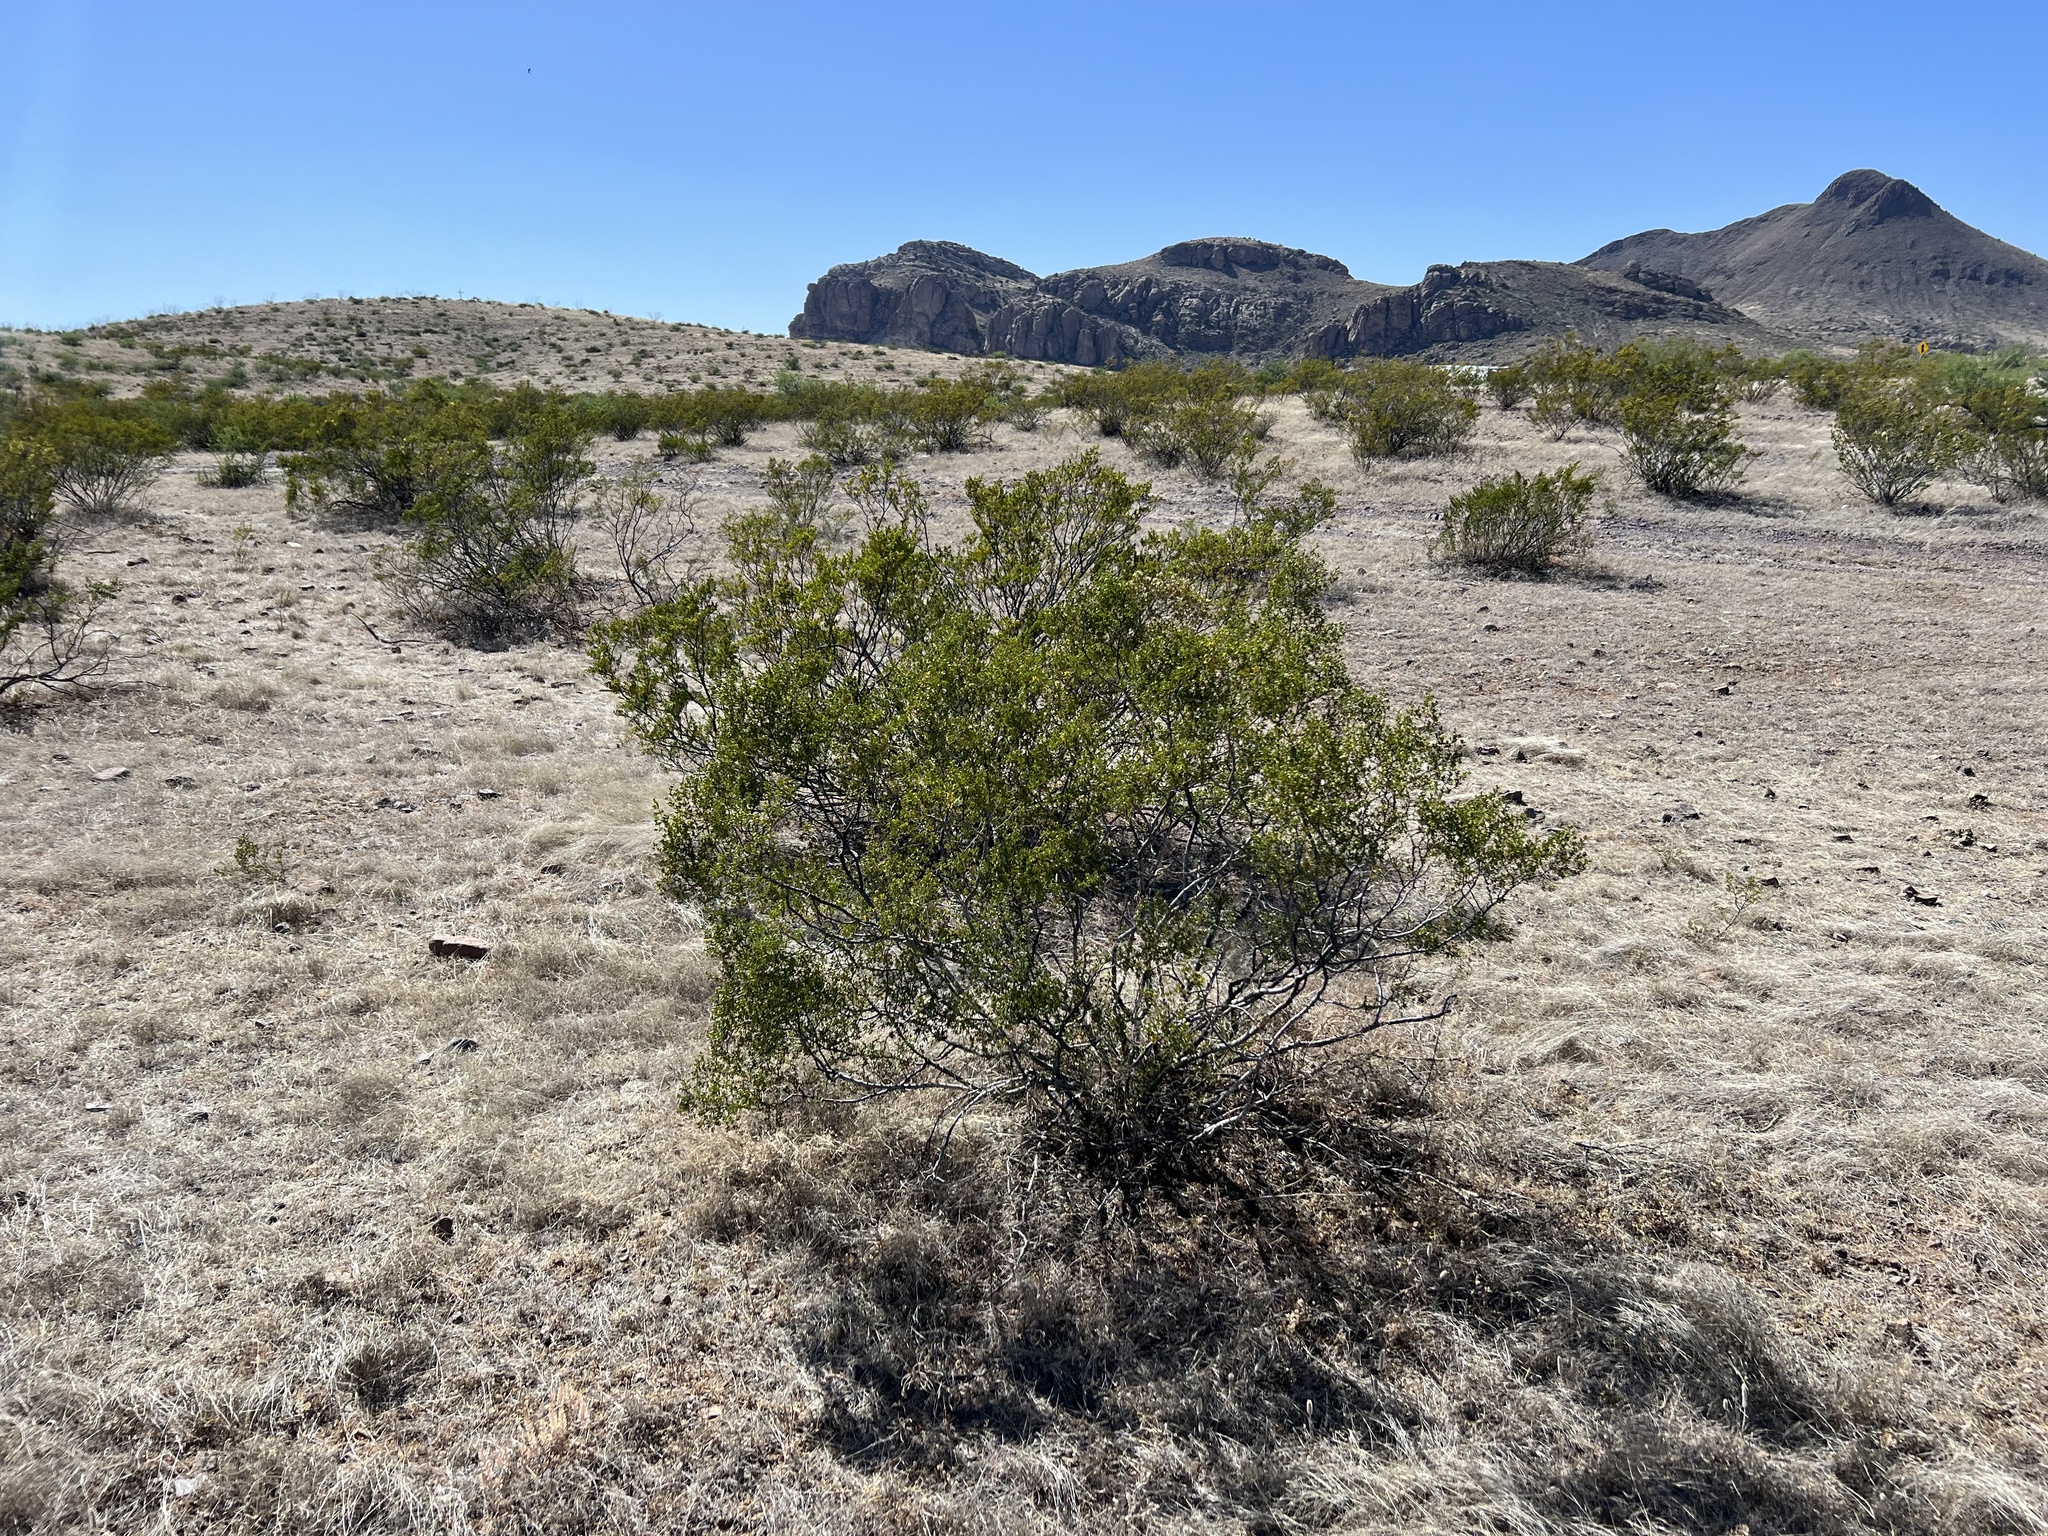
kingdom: Plantae
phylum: Tracheophyta
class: Magnoliopsida
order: Zygophyllales
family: Zygophyllaceae
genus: Larrea
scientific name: Larrea tridentata
